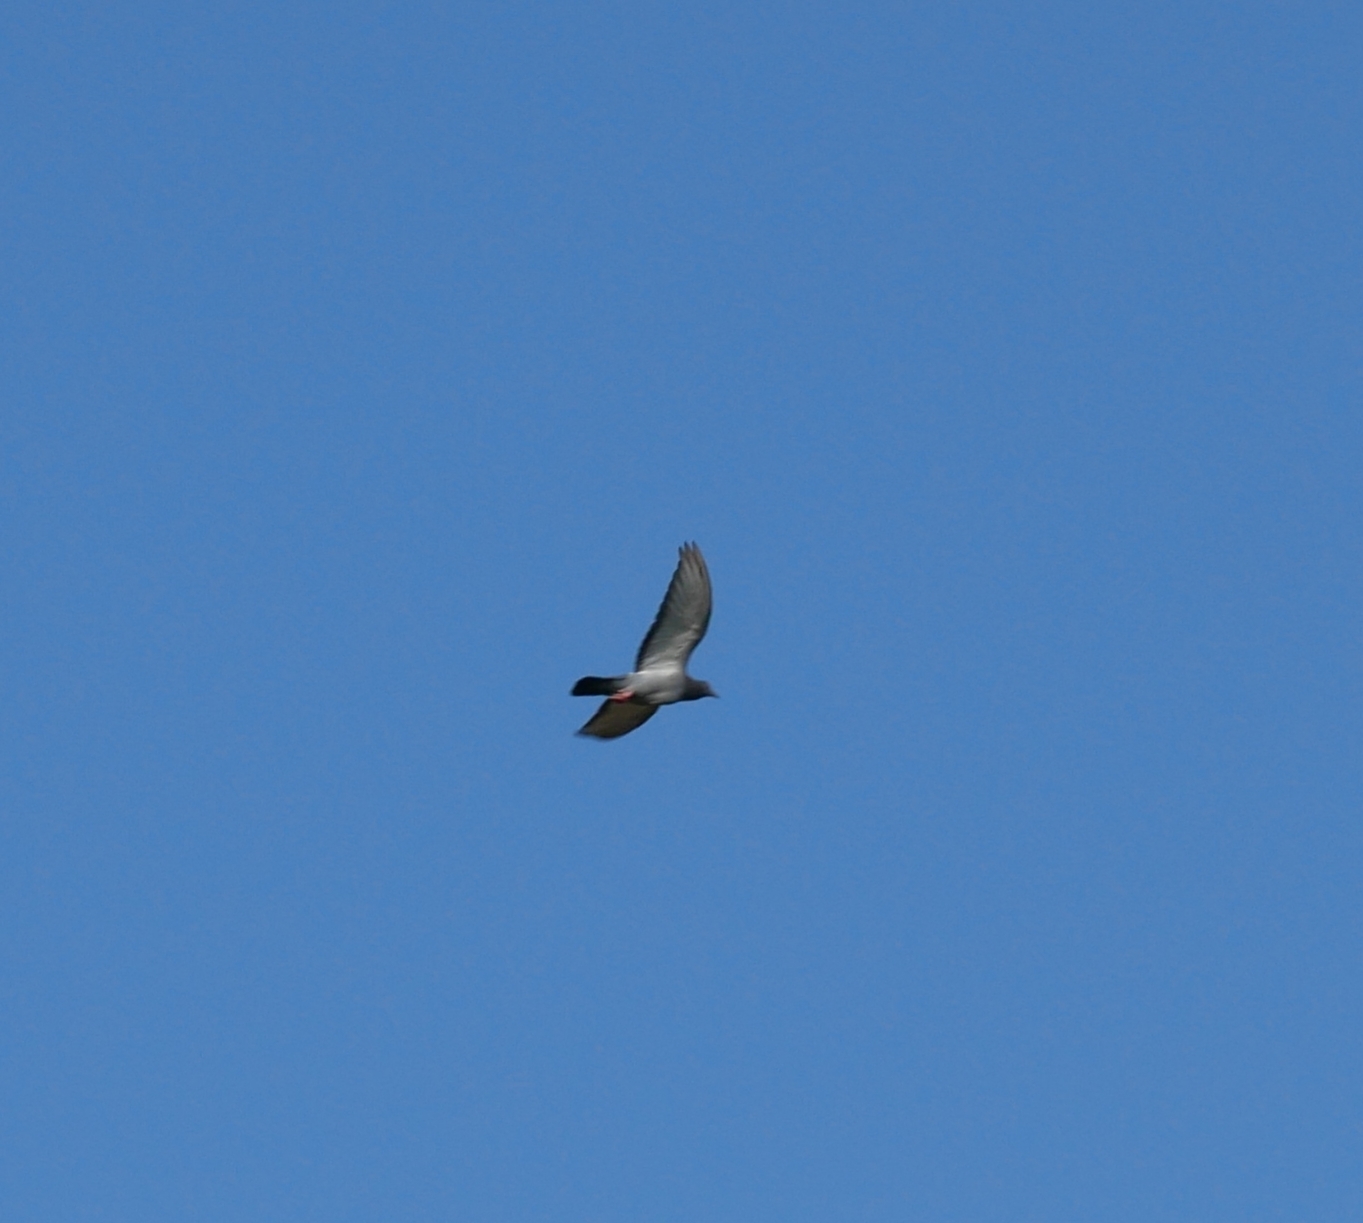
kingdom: Animalia
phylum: Chordata
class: Aves
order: Columbiformes
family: Columbidae
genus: Columba
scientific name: Columba livia
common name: Rock pigeon
